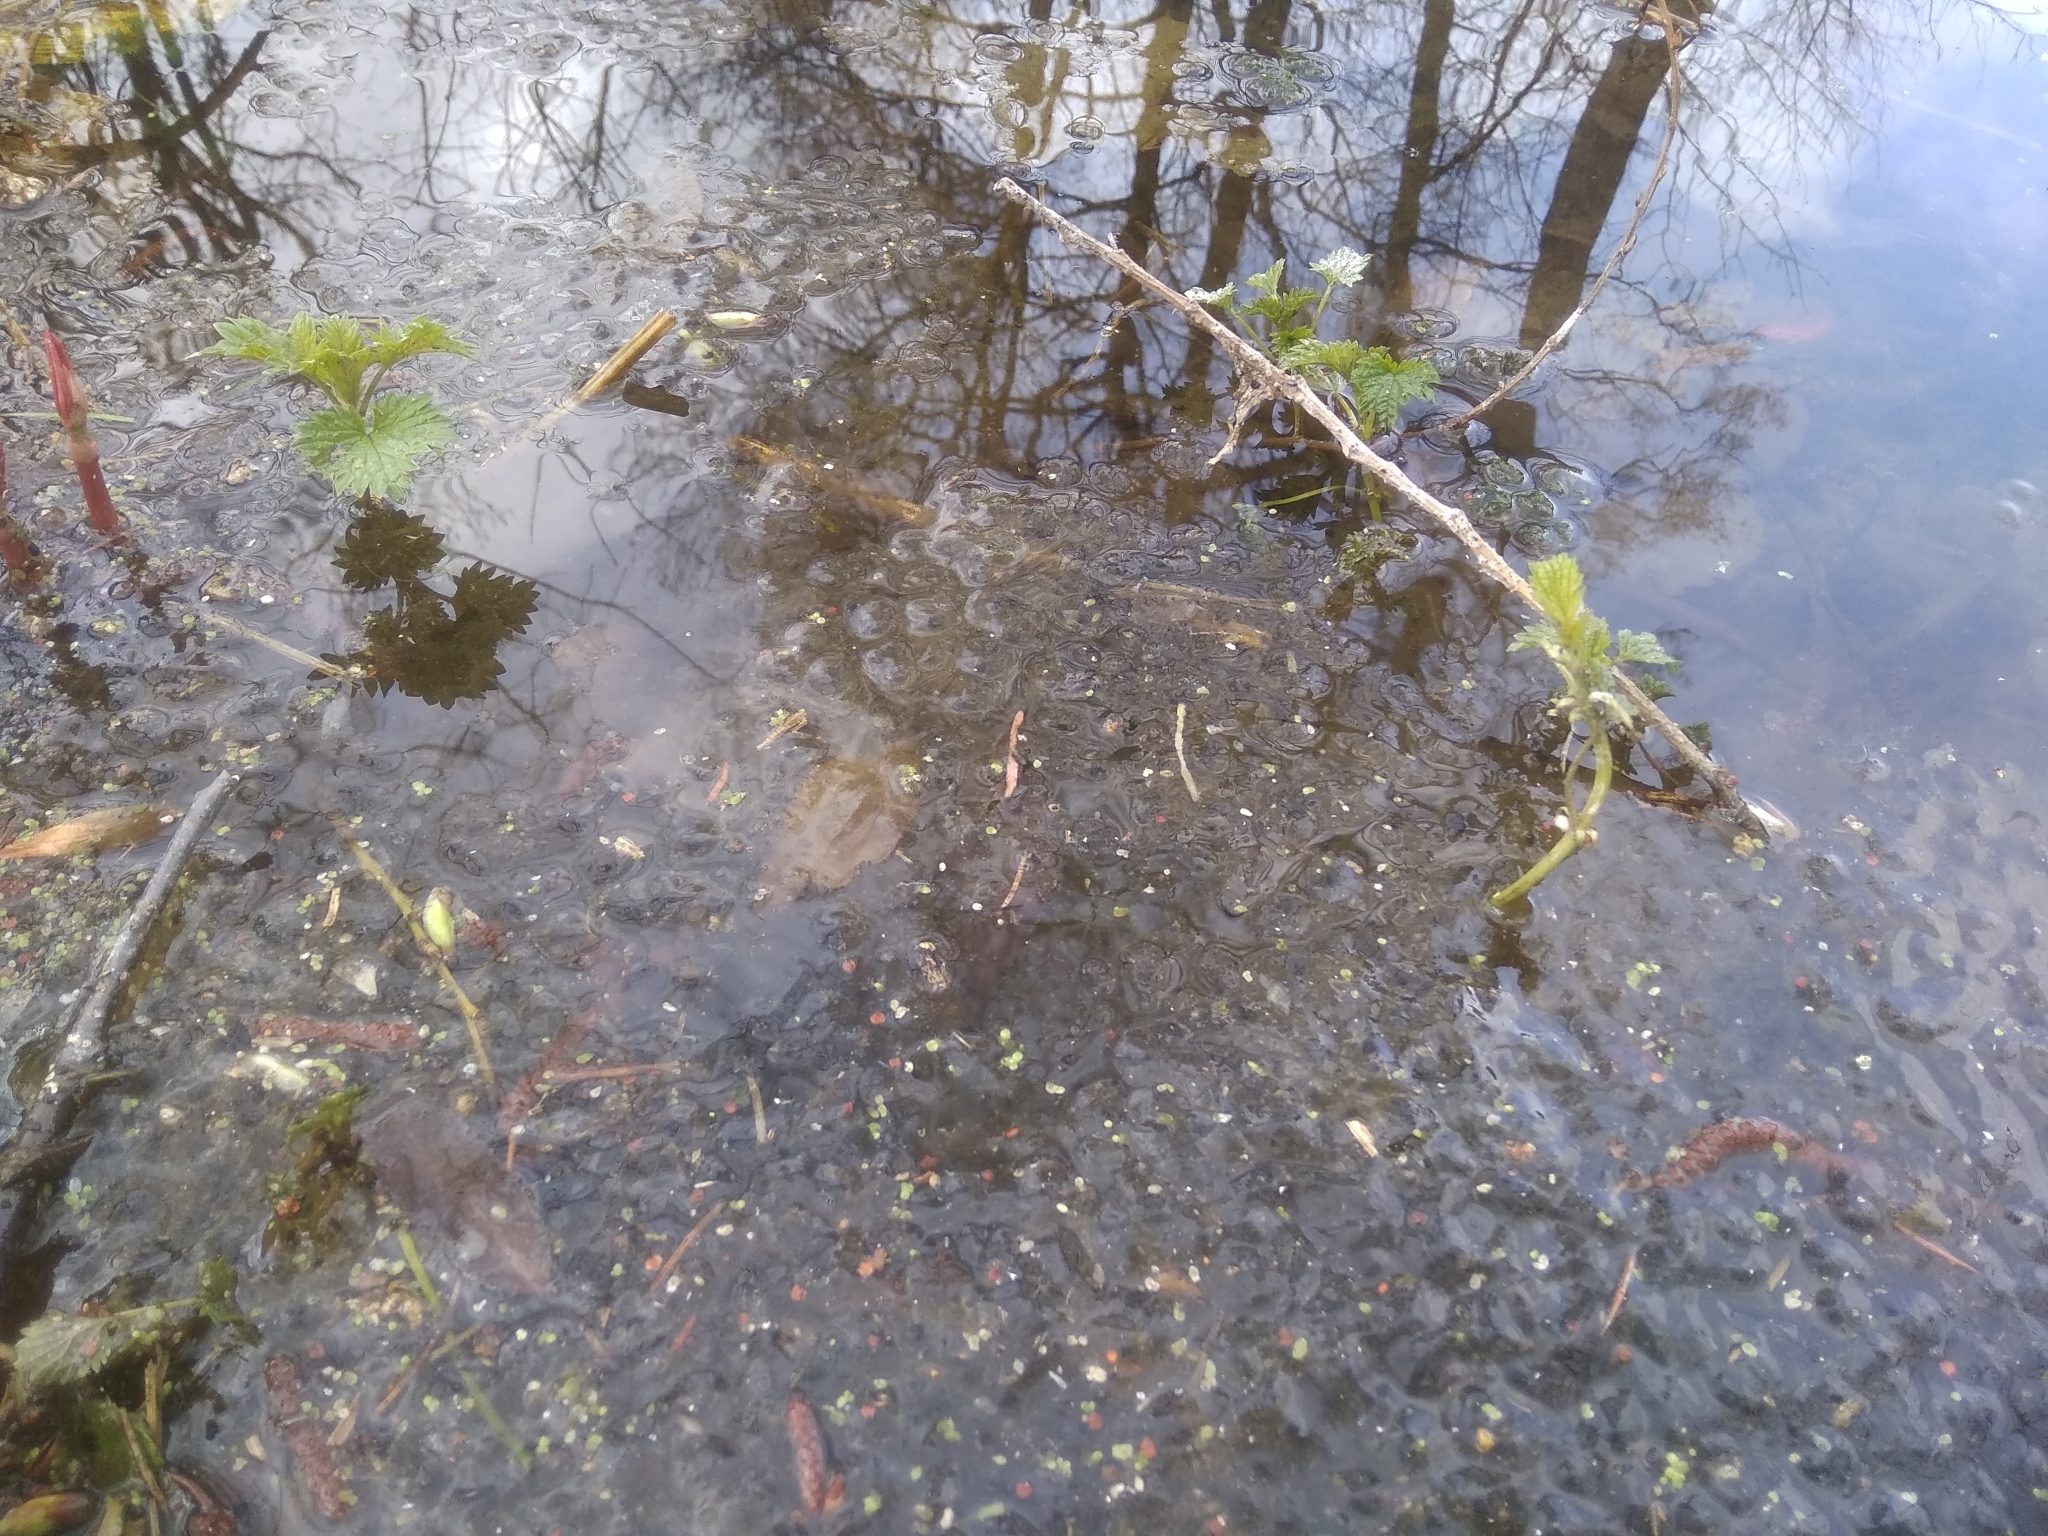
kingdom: Animalia
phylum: Chordata
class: Amphibia
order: Anura
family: Ranidae
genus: Rana
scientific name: Rana temporaria
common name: Common frog
